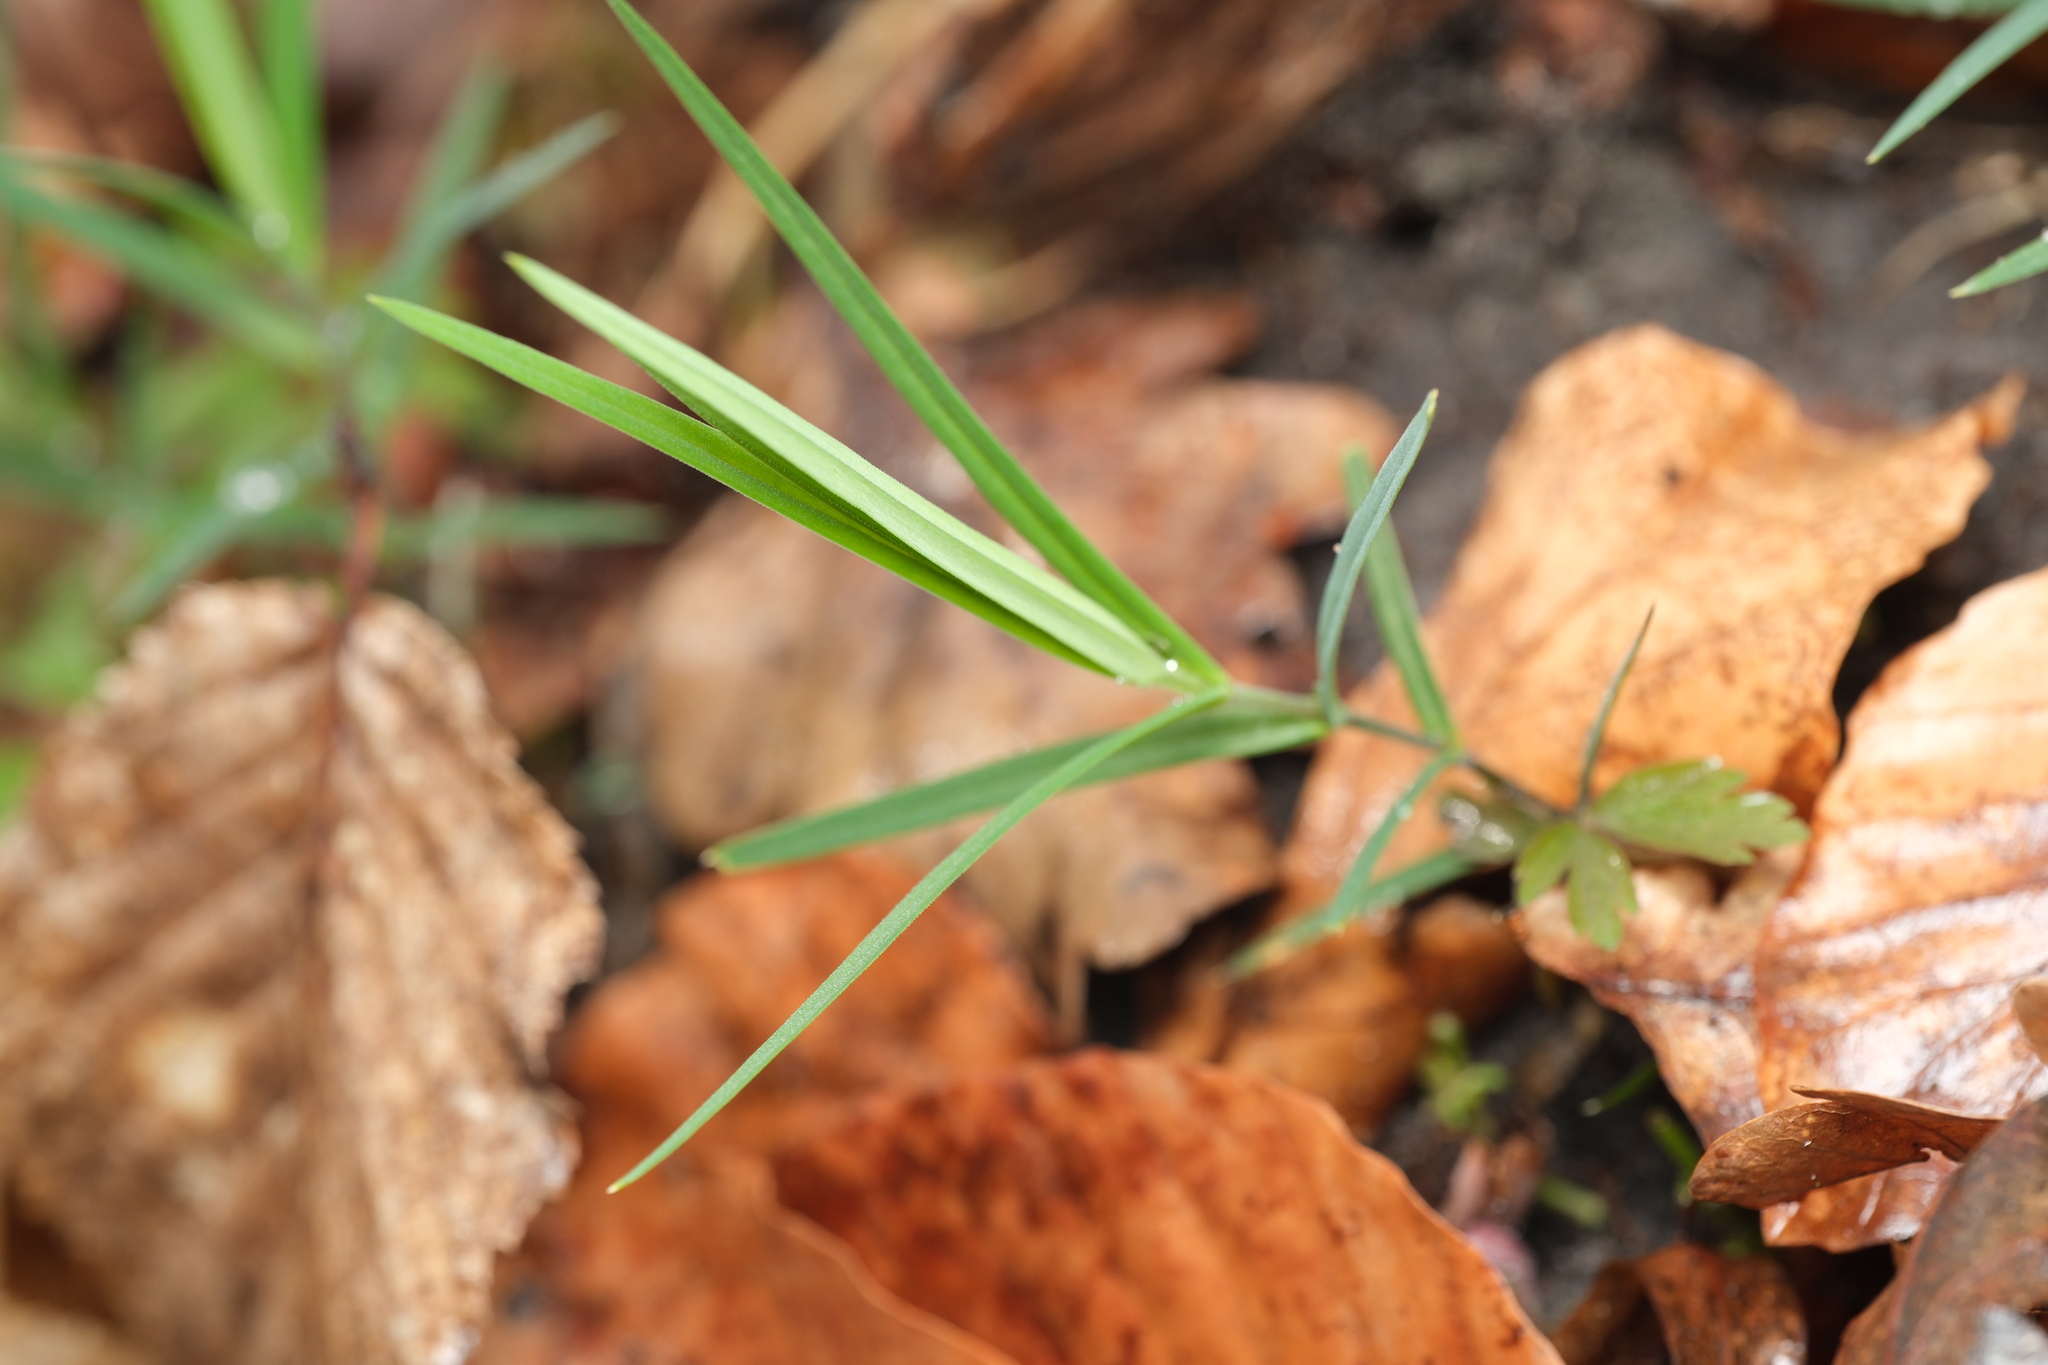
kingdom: Plantae
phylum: Tracheophyta
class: Magnoliopsida
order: Caryophyllales
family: Caryophyllaceae
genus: Rabelera
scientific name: Rabelera holostea
